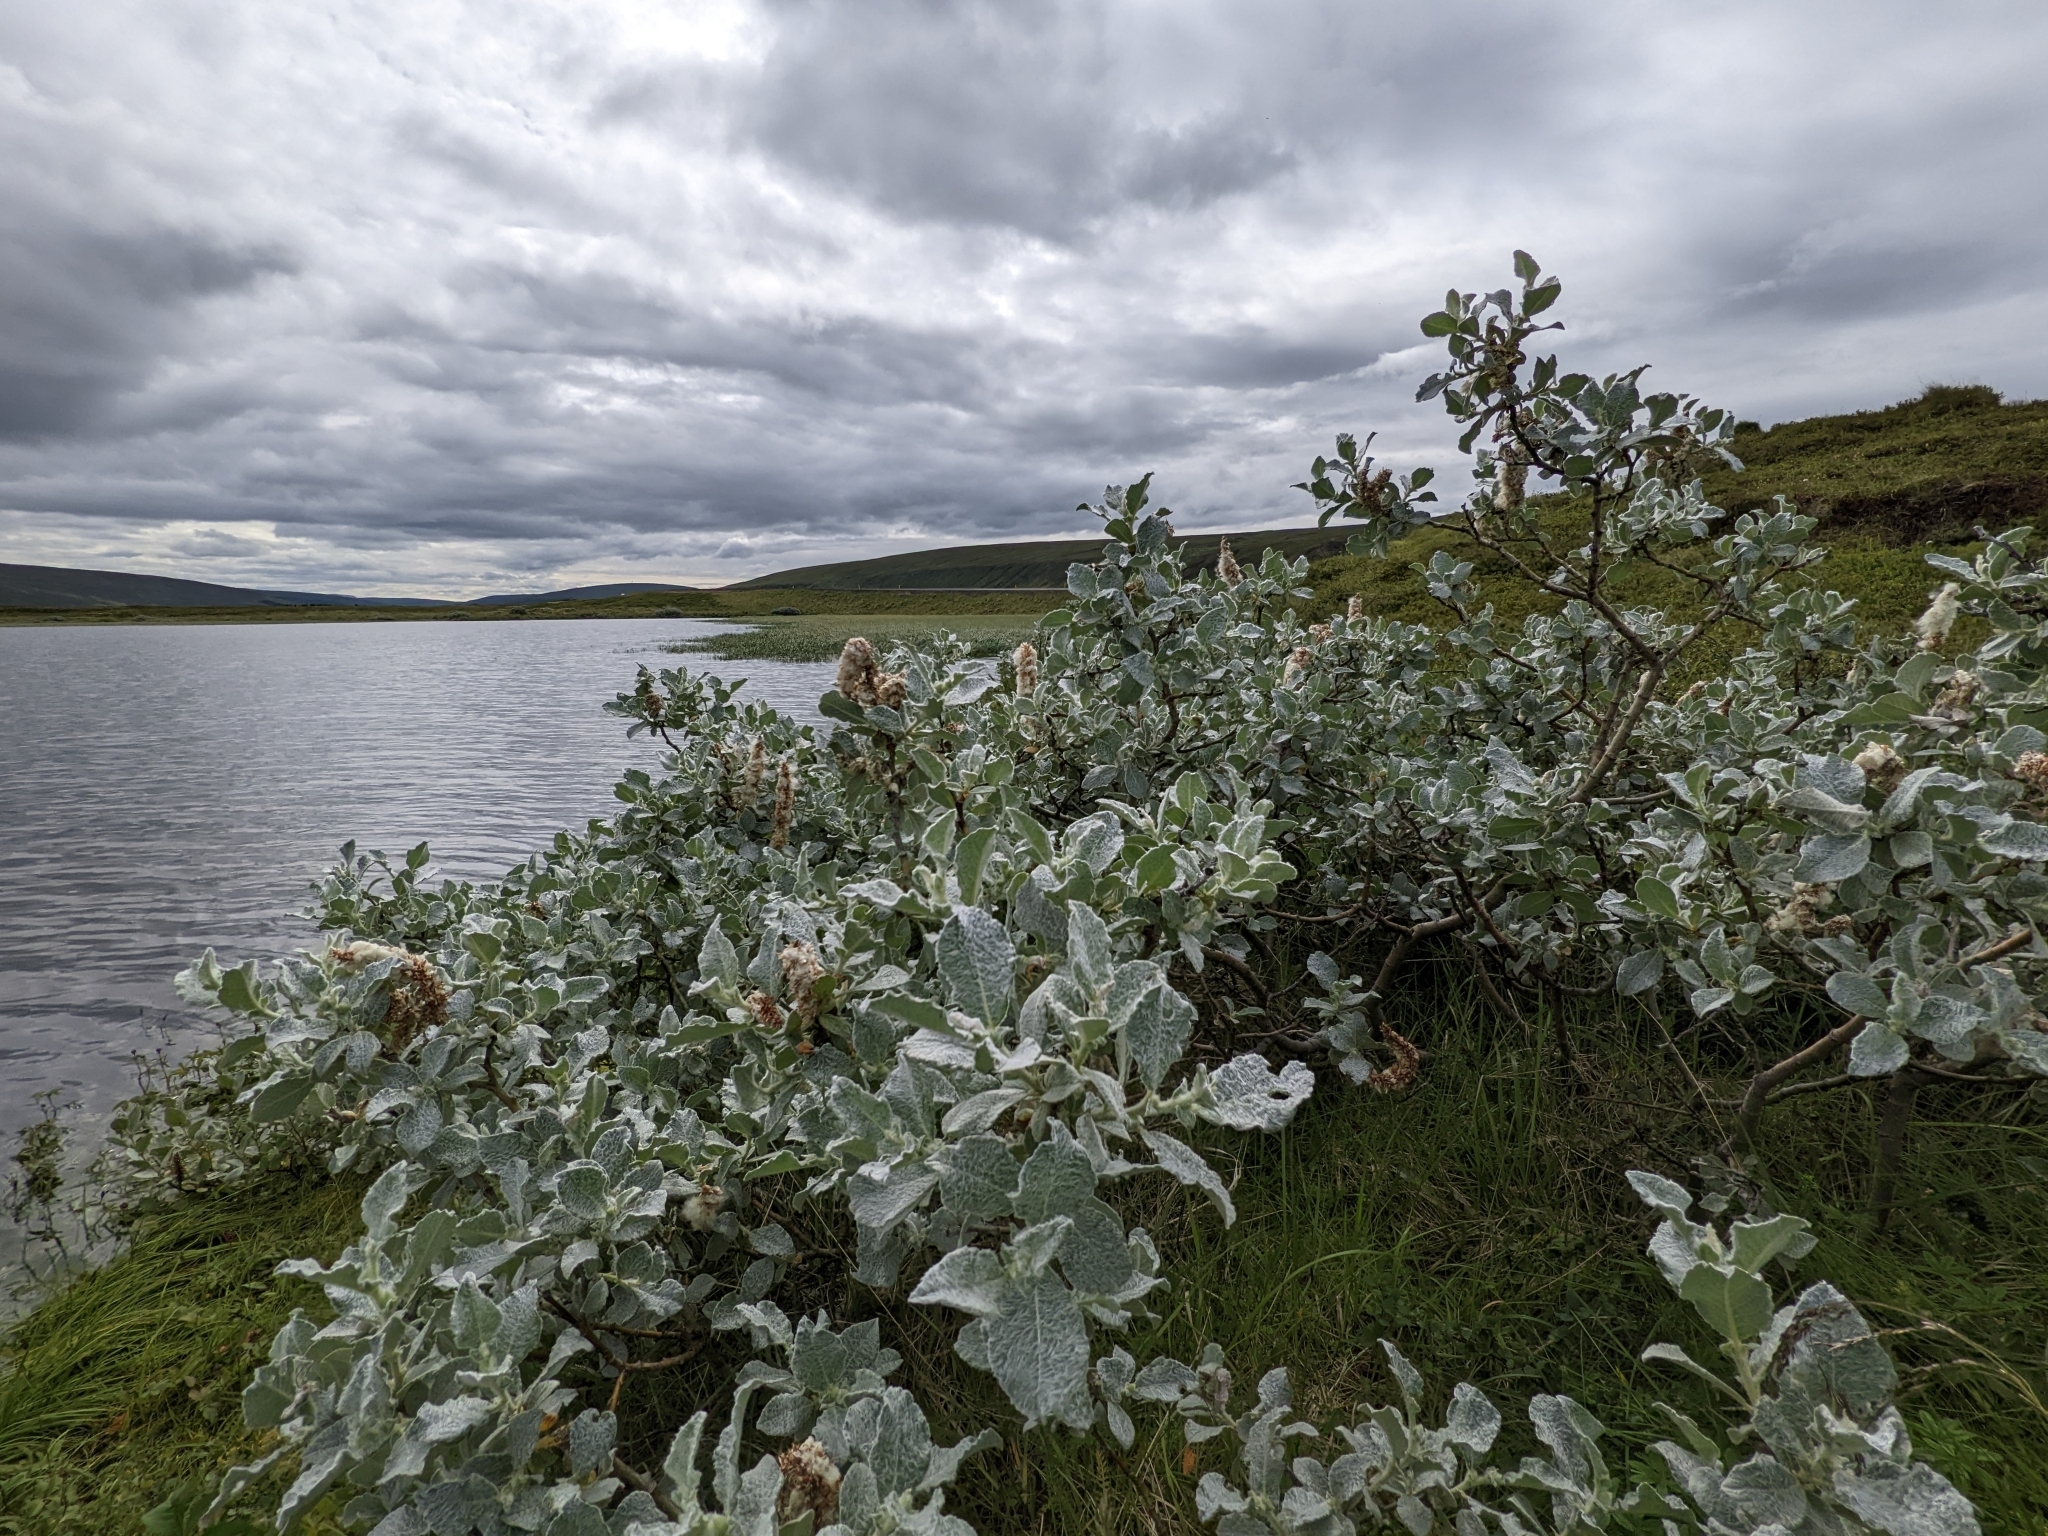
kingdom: Plantae
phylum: Tracheophyta
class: Magnoliopsida
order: Malpighiales
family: Salicaceae
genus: Salix
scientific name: Salix lanata
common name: Woolly willow
